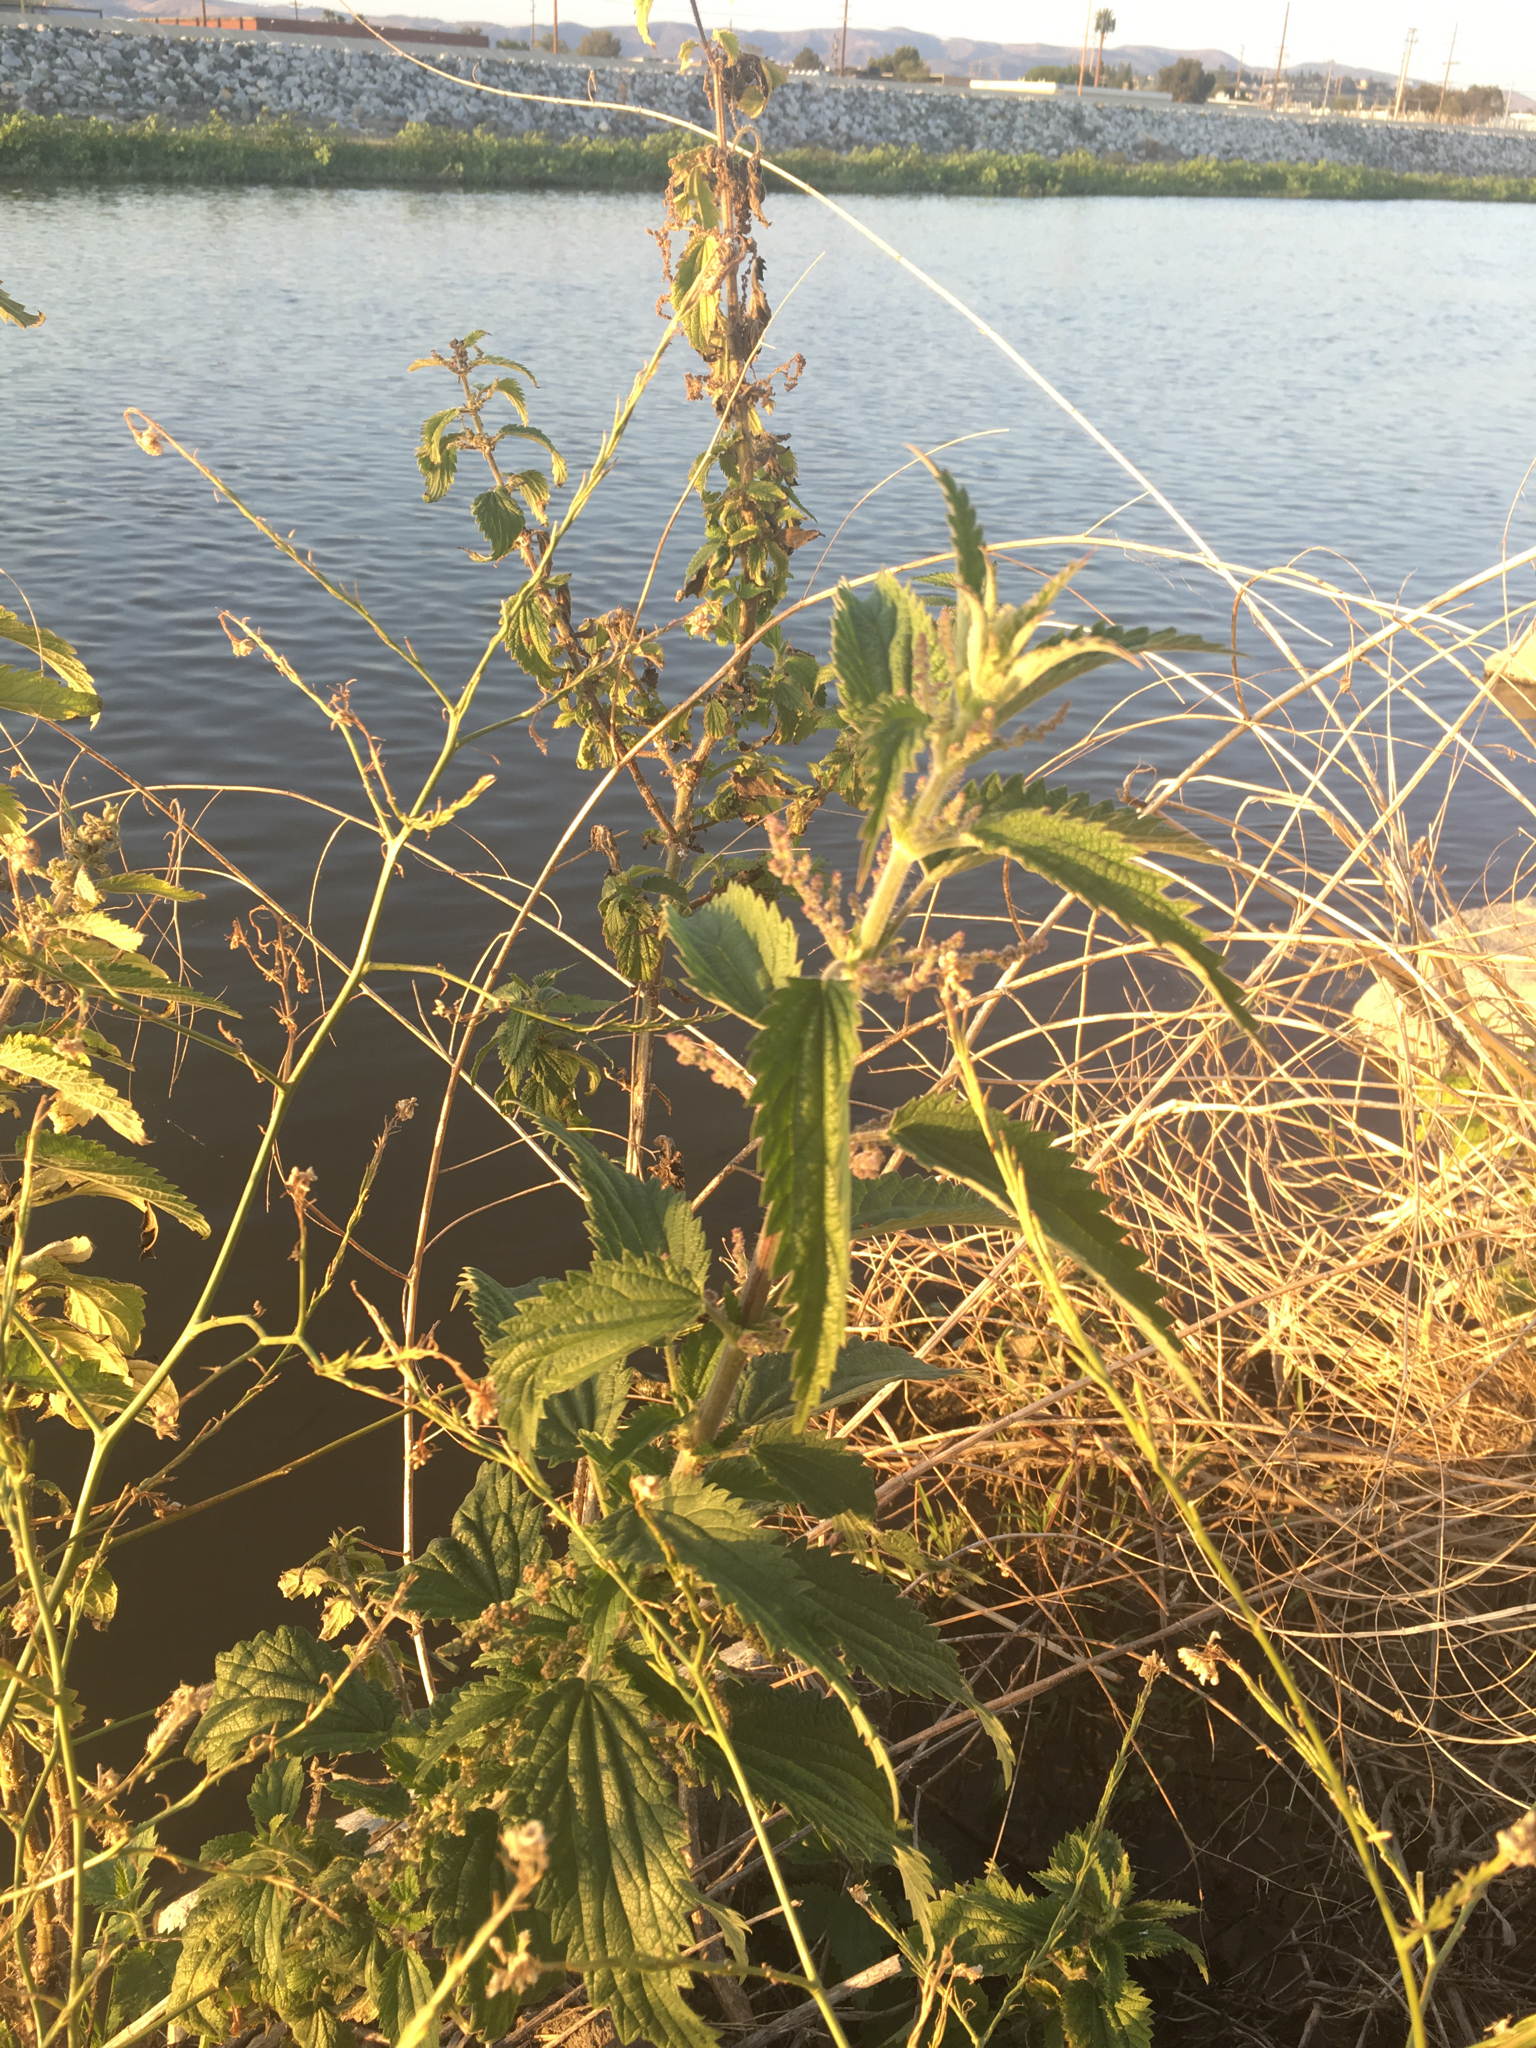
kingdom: Plantae
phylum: Tracheophyta
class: Magnoliopsida
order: Rosales
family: Urticaceae
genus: Urtica
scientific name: Urtica dioica
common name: Common nettle
